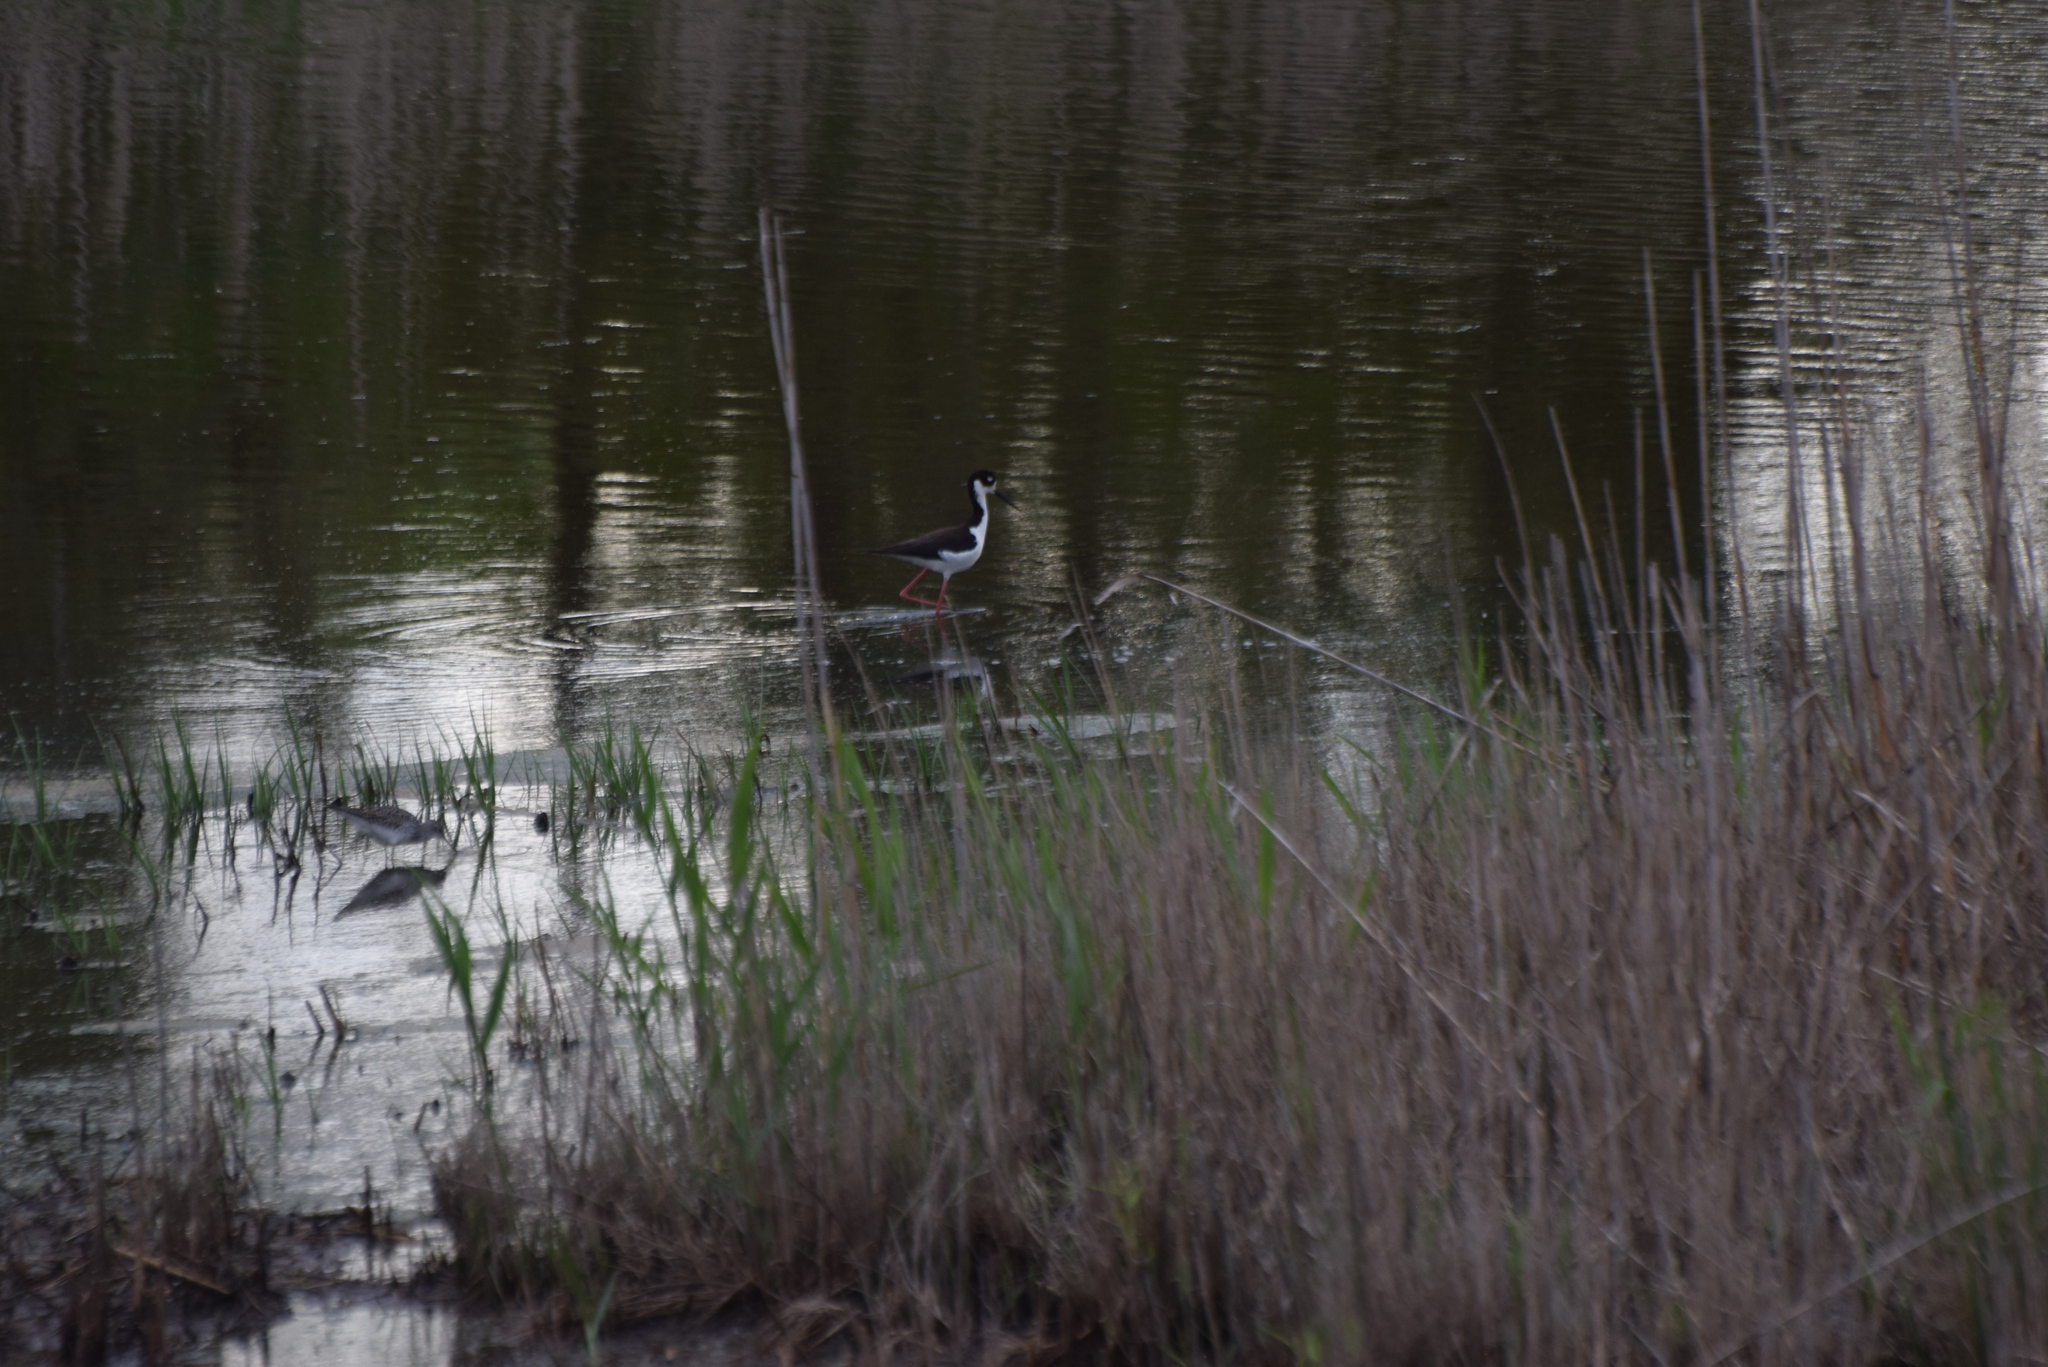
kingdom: Animalia
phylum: Chordata
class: Aves
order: Charadriiformes
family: Recurvirostridae
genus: Himantopus
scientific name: Himantopus mexicanus
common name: Black-necked stilt
